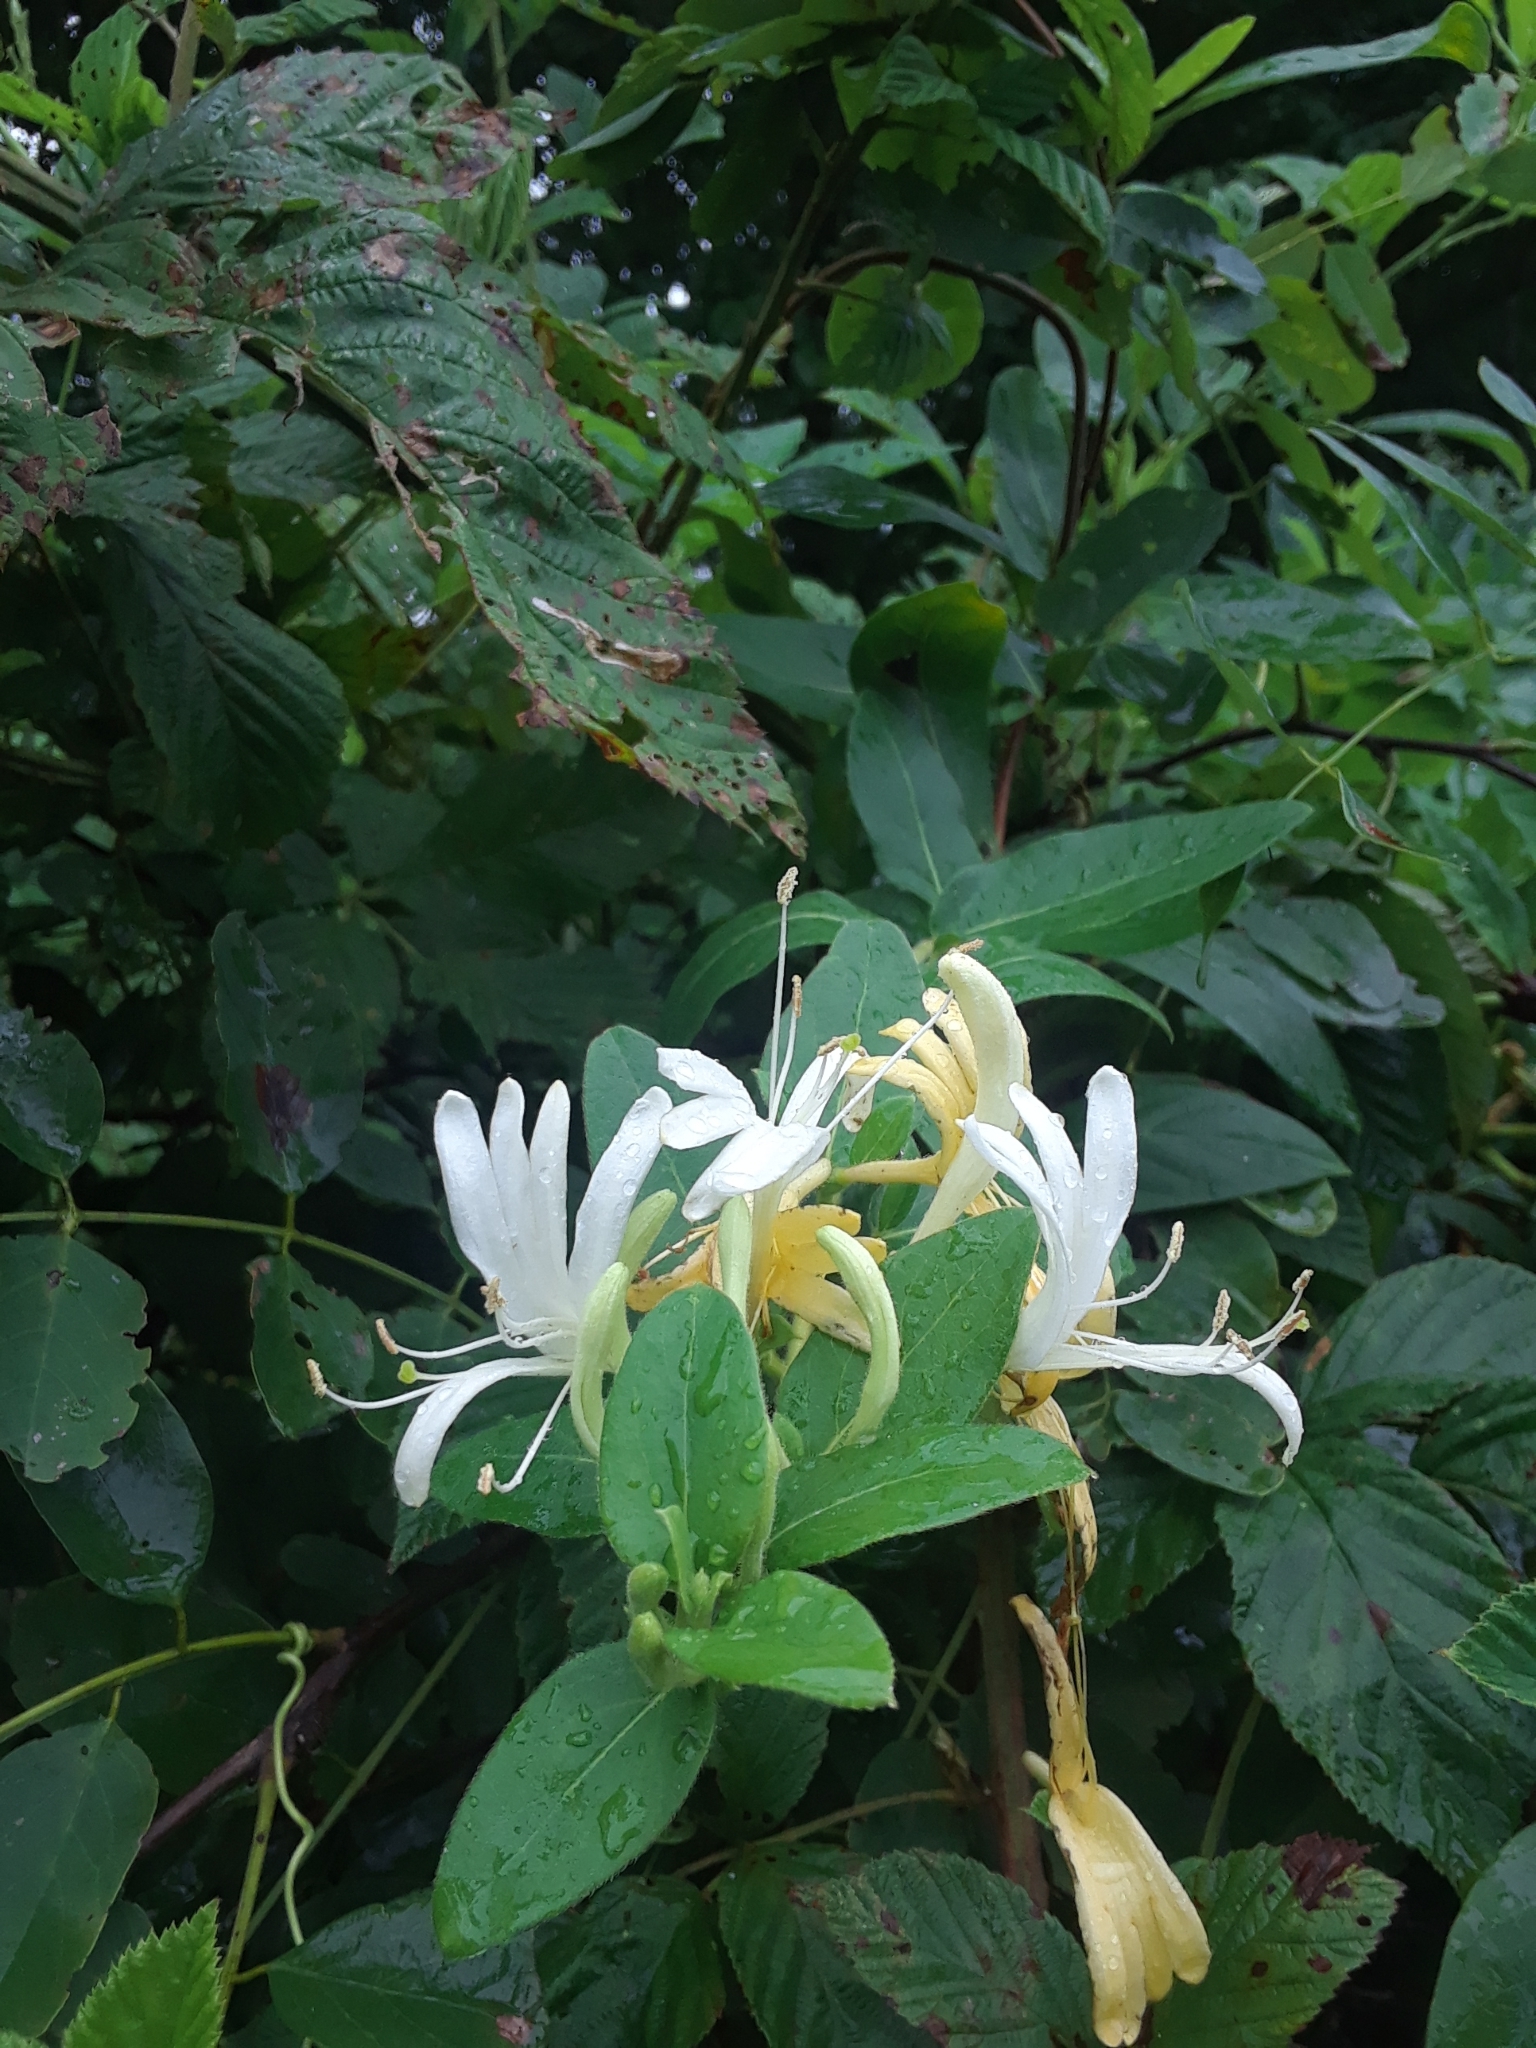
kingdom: Plantae
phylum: Tracheophyta
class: Magnoliopsida
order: Dipsacales
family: Caprifoliaceae
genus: Lonicera
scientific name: Lonicera japonica
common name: Japanese honeysuckle
